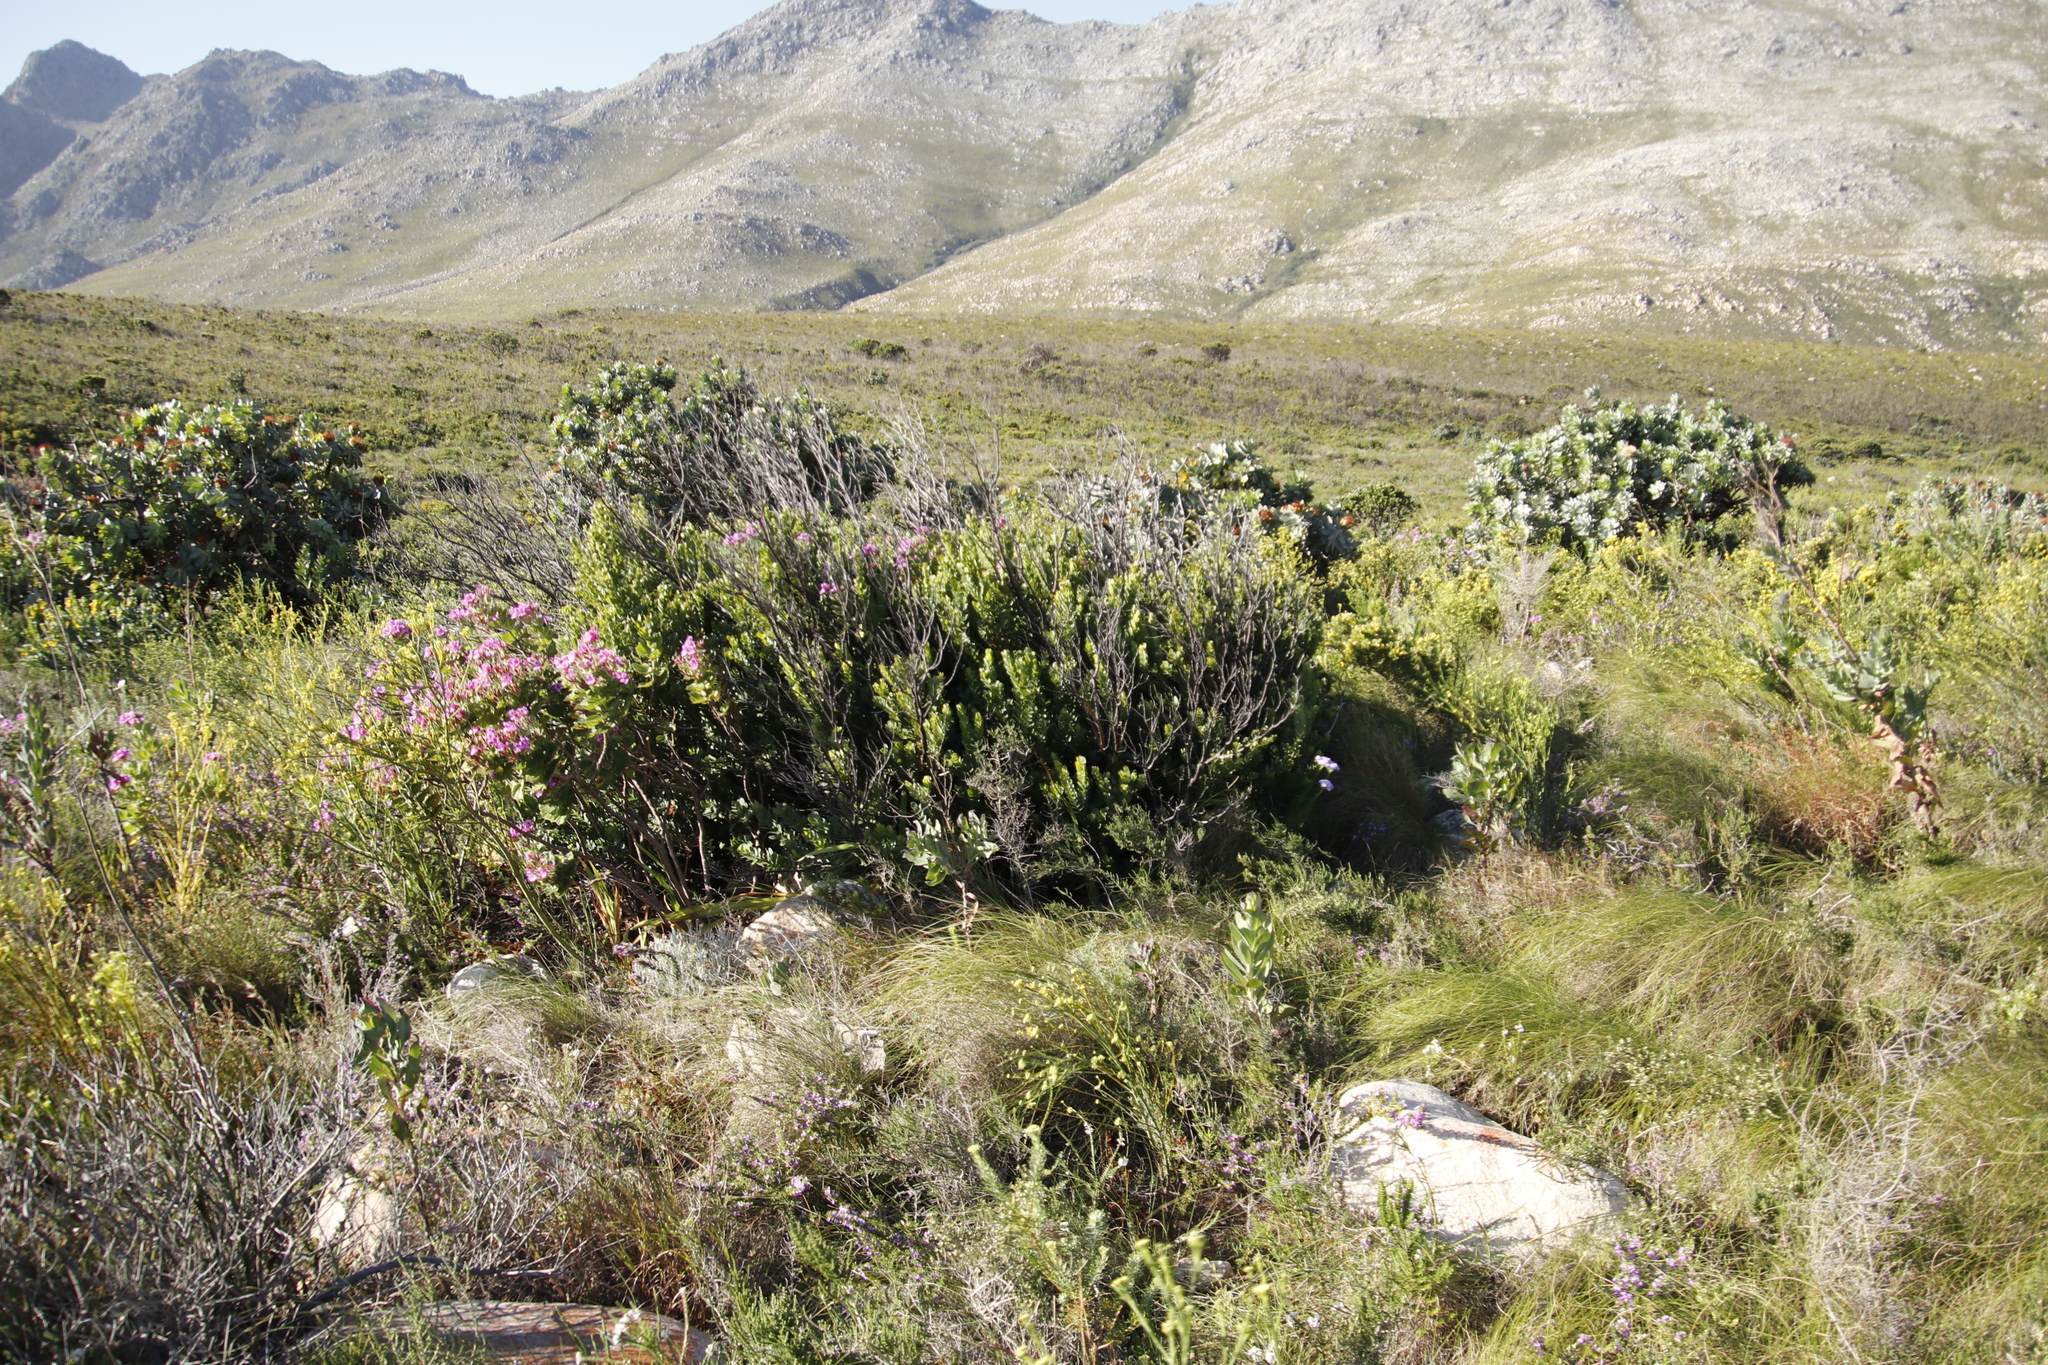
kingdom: Plantae
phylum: Tracheophyta
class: Magnoliopsida
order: Santalales
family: Santalaceae
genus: Osyris
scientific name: Osyris compressa
